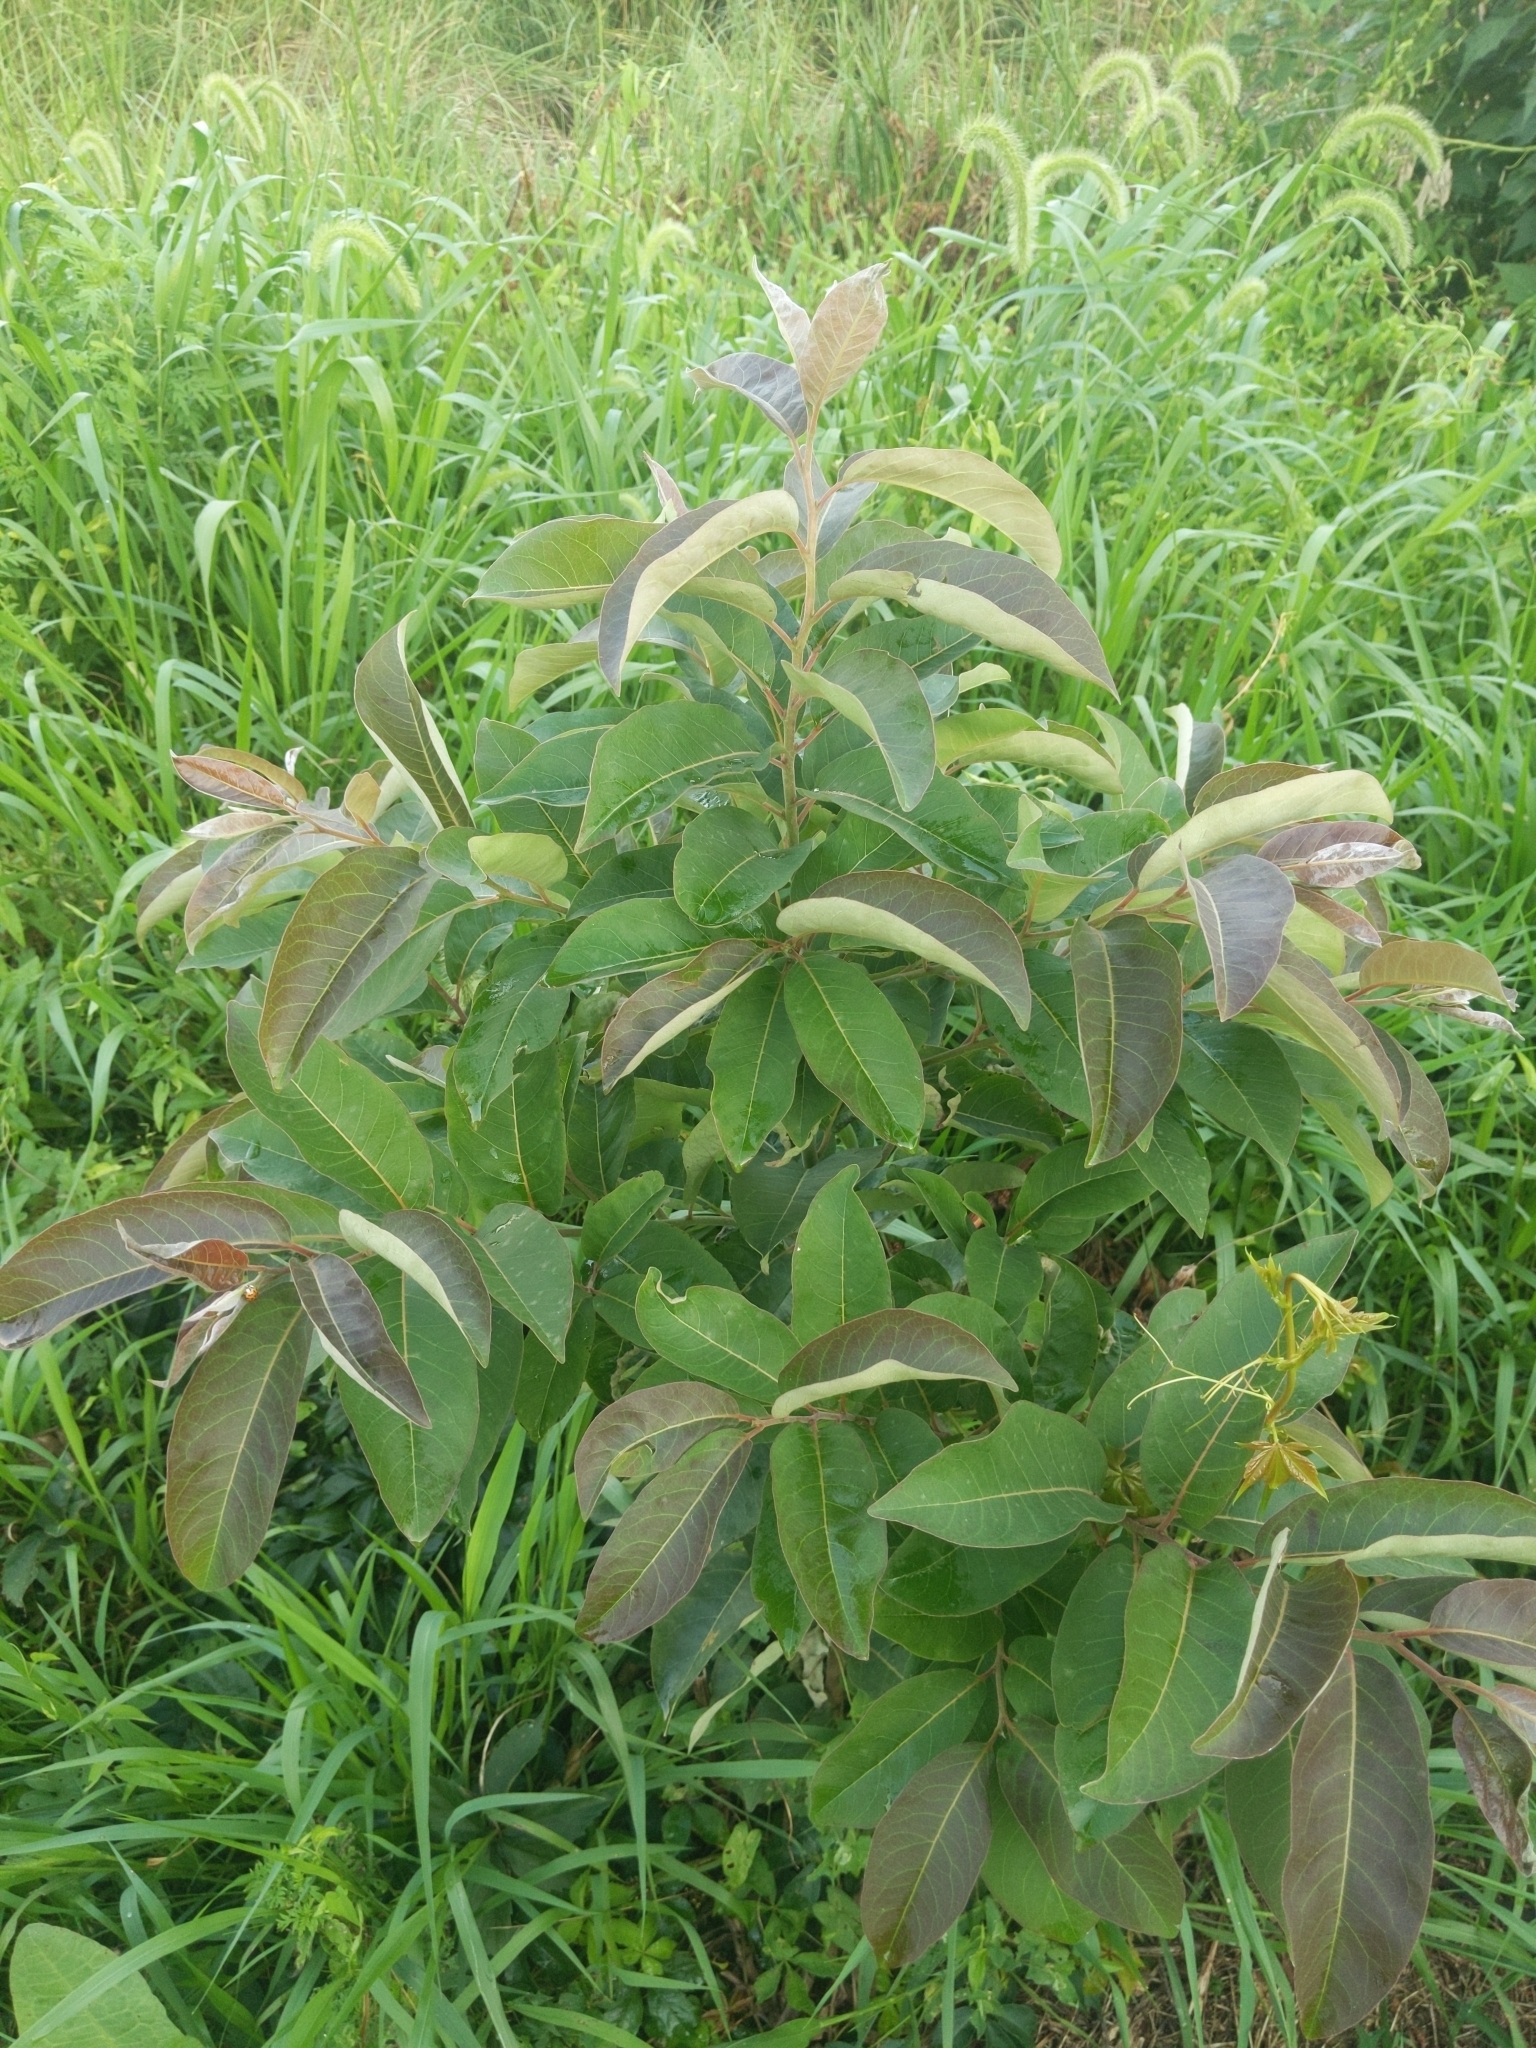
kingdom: Plantae
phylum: Tracheophyta
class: Magnoliopsida
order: Ericales
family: Ebenaceae
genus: Diospyros
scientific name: Diospyros virginiana
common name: Persimmon
